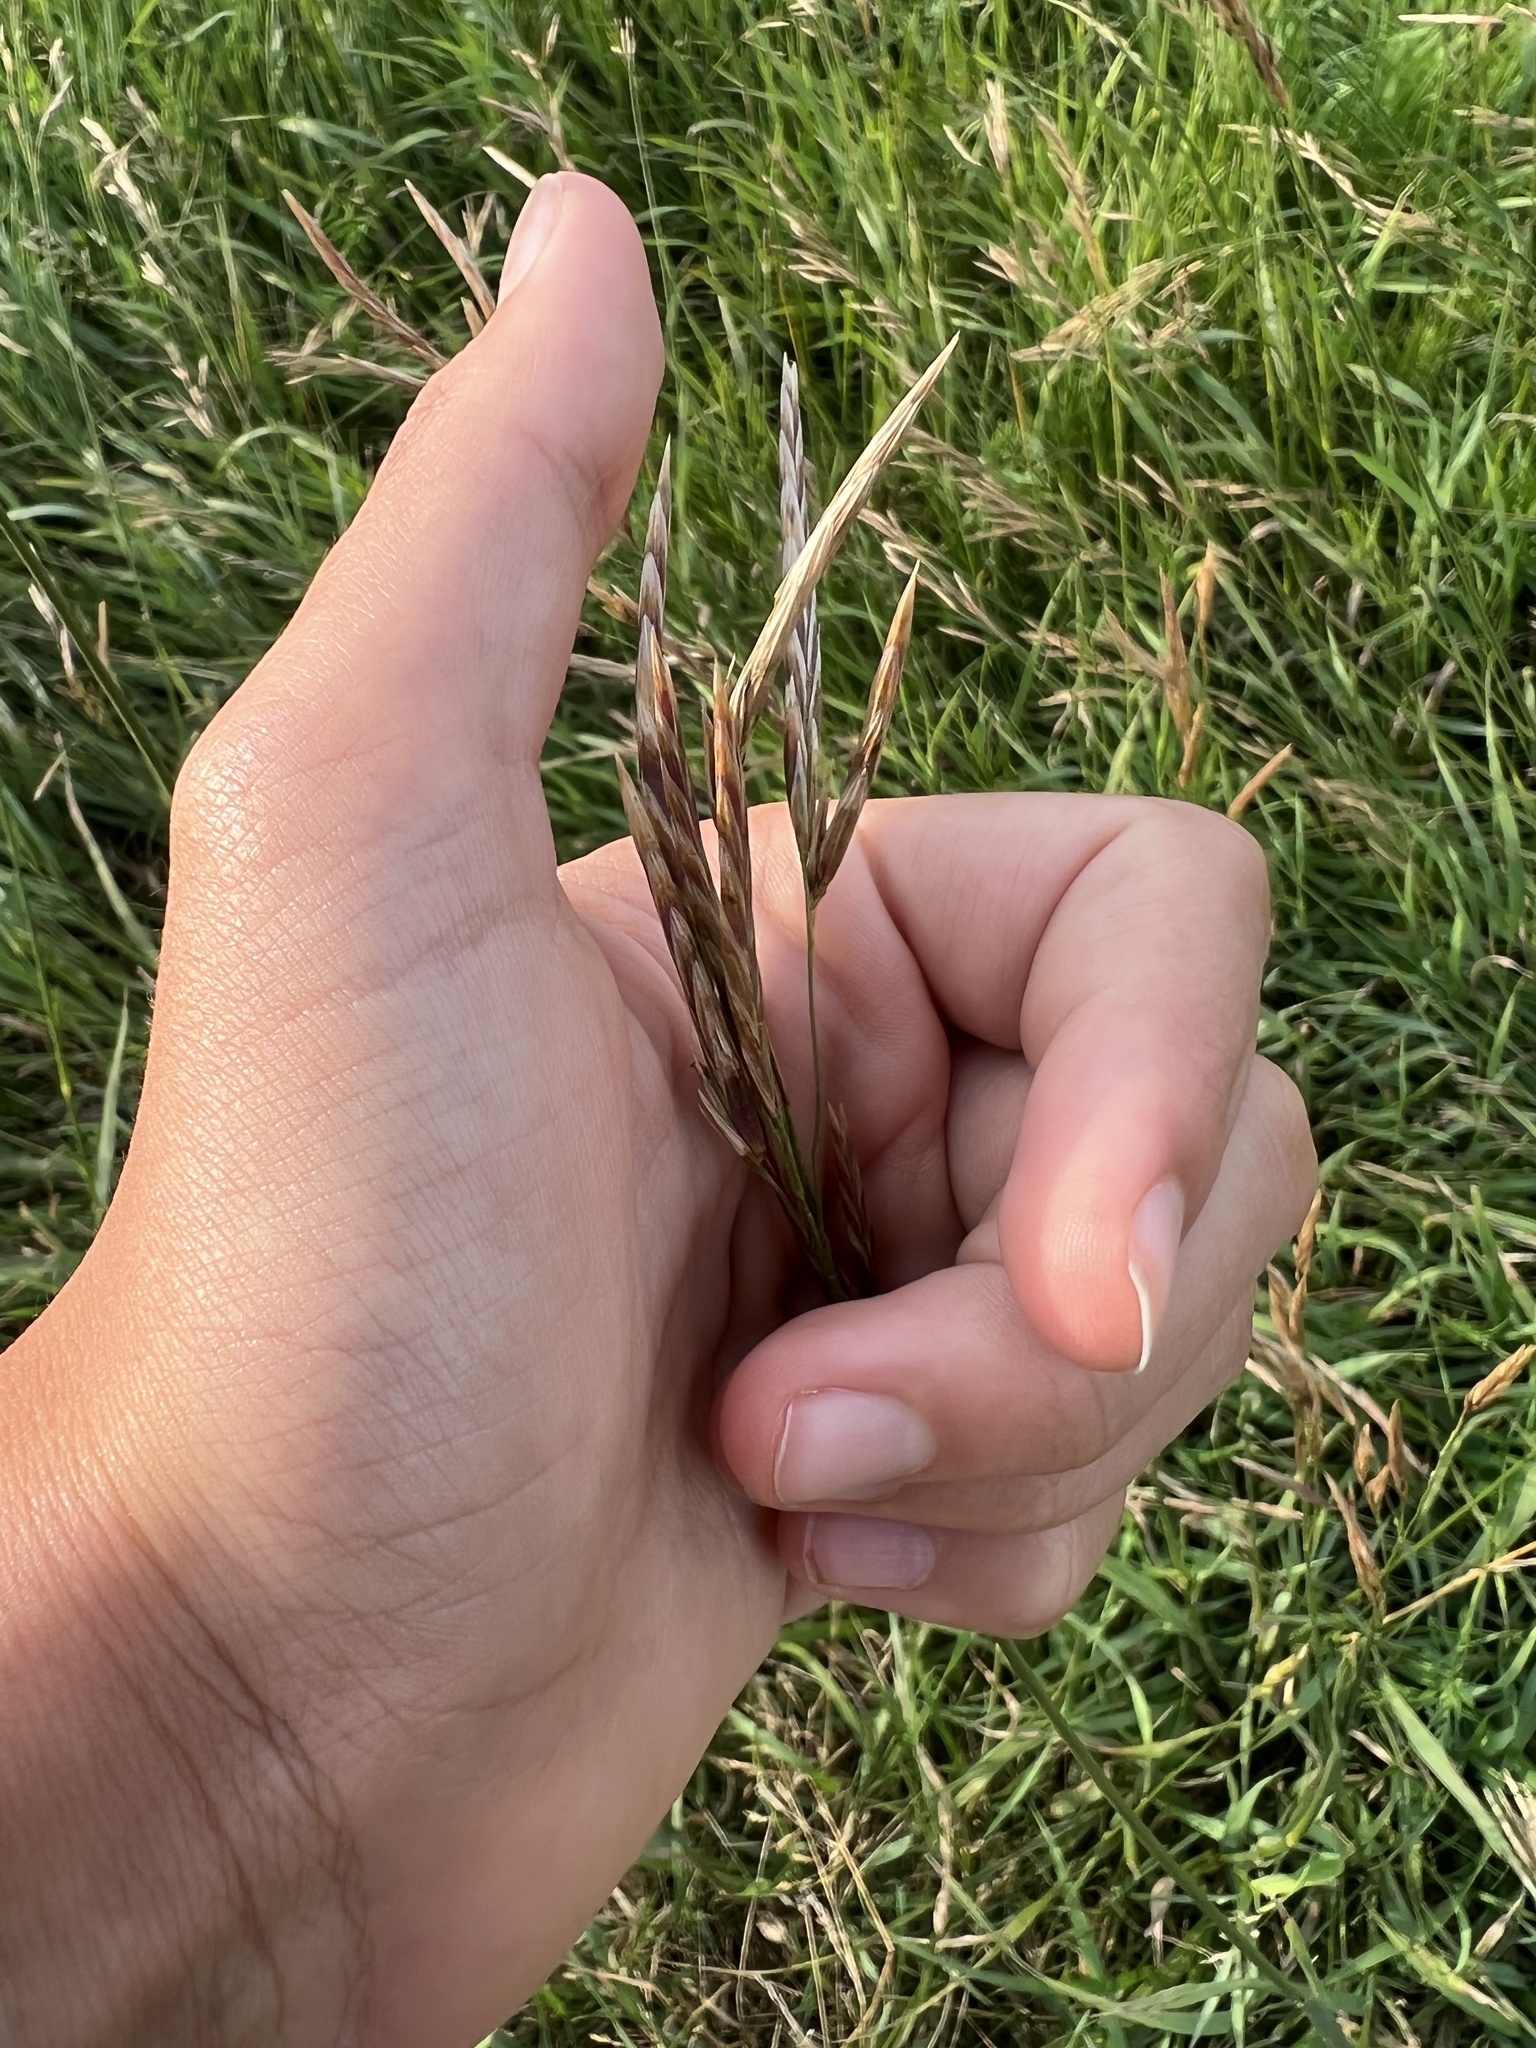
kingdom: Plantae
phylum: Tracheophyta
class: Liliopsida
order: Poales
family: Poaceae
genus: Bromus
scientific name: Bromus inermis
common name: Smooth brome
